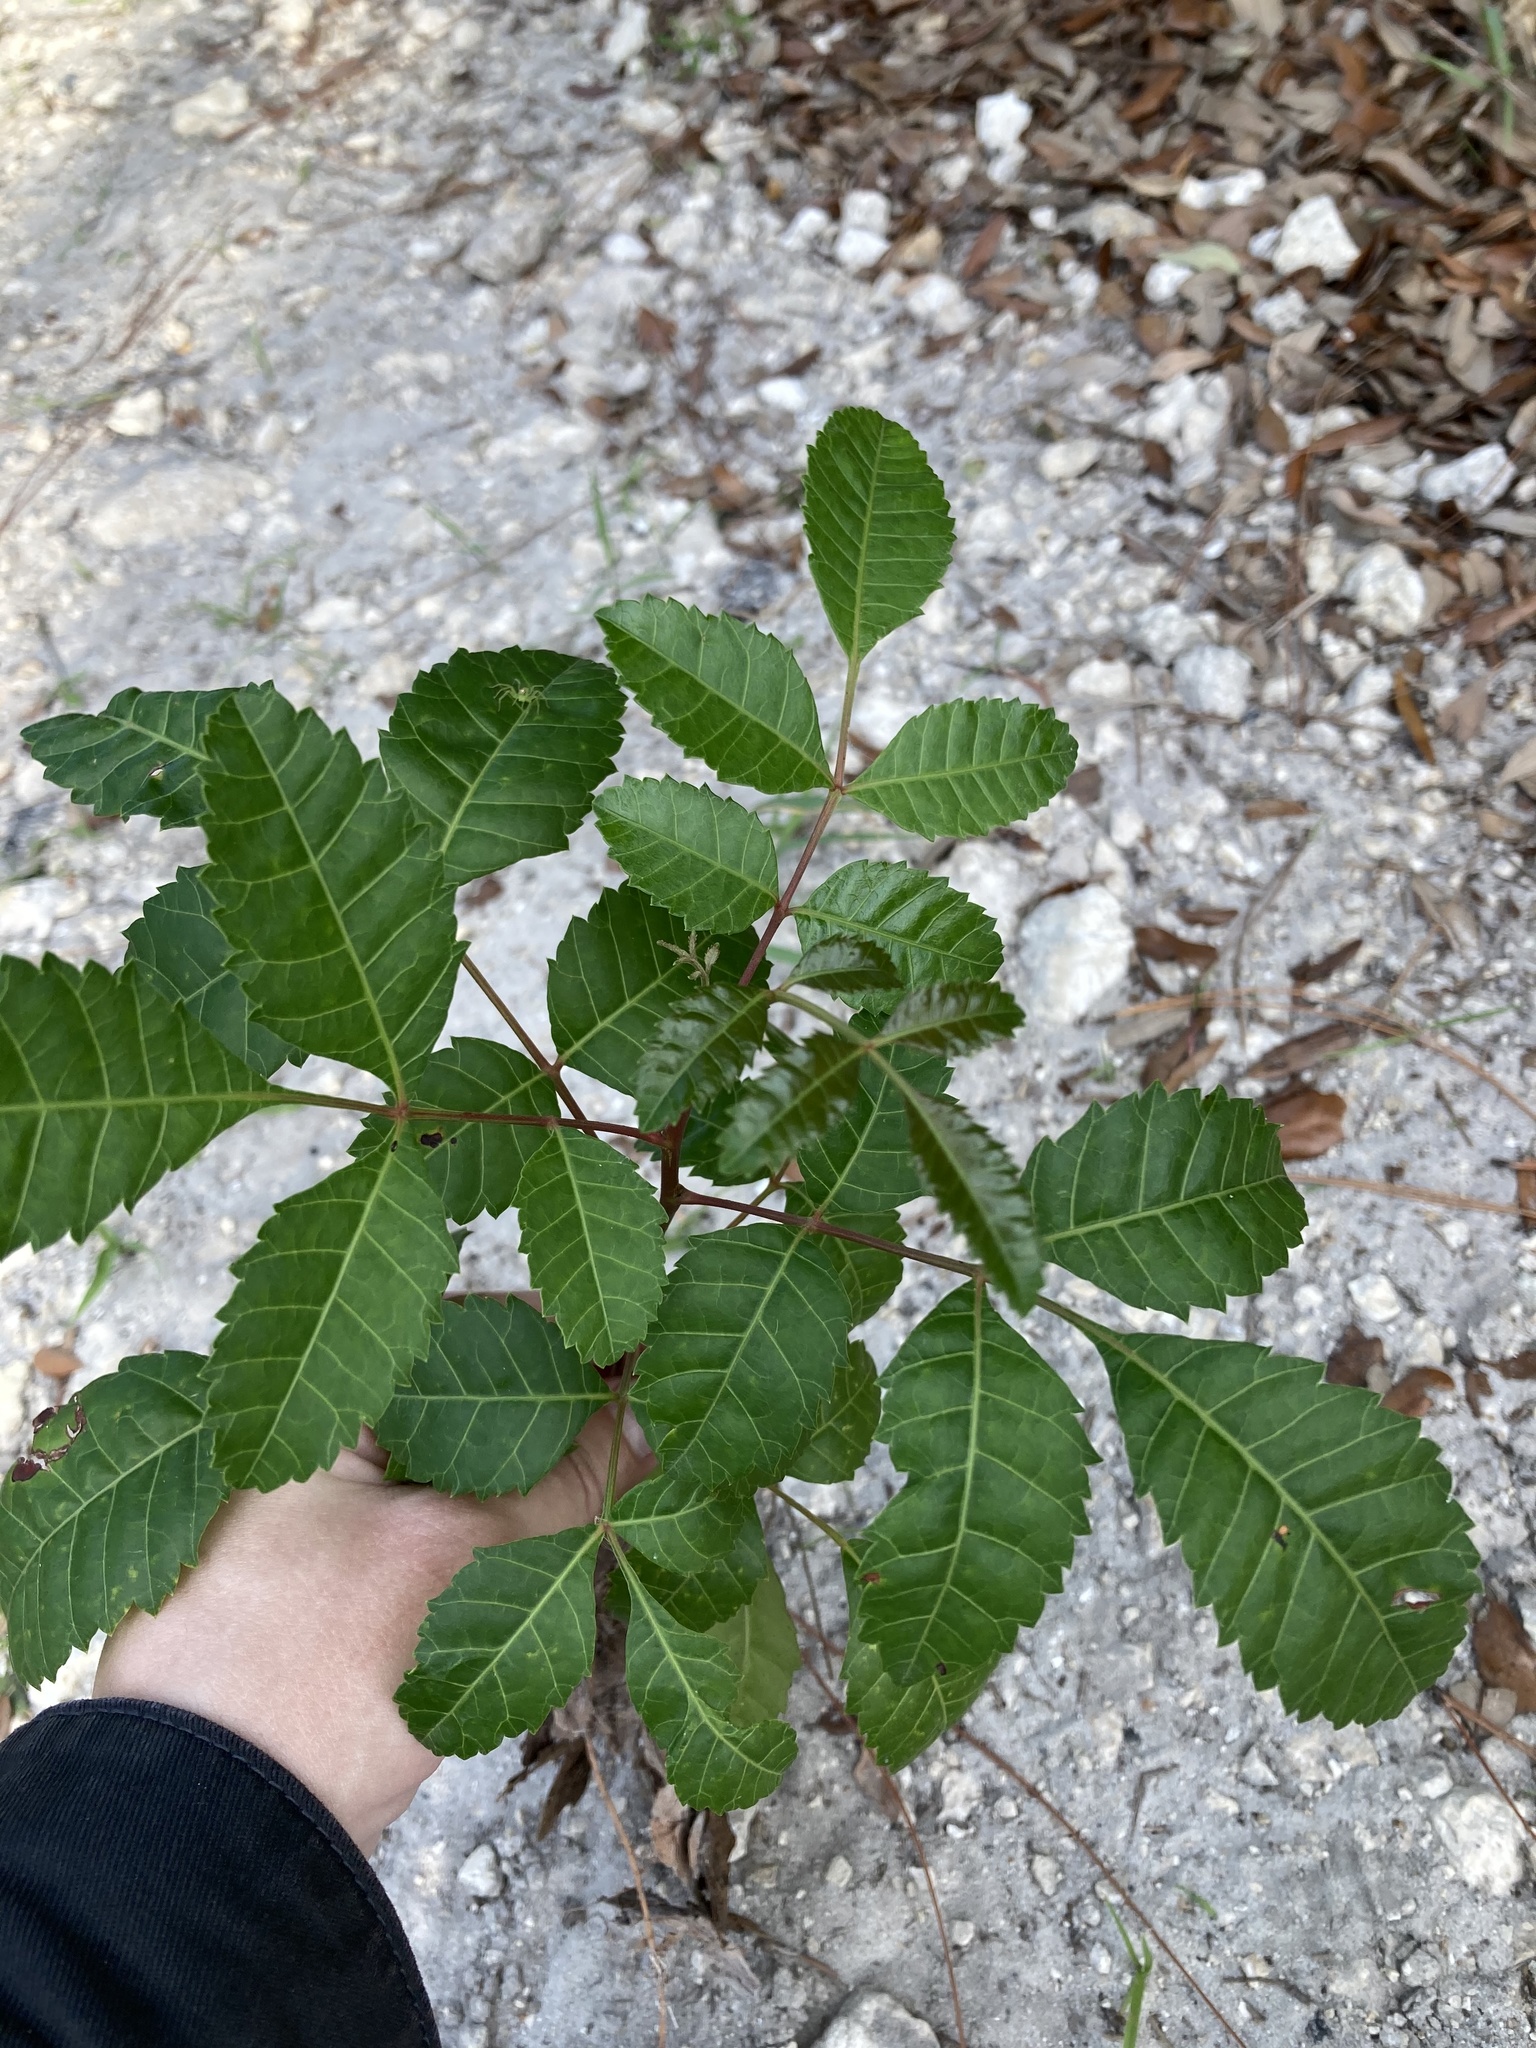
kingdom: Plantae
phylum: Tracheophyta
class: Magnoliopsida
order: Sapindales
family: Anacardiaceae
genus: Schinus
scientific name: Schinus terebinthifolia
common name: Brazilian peppertree
